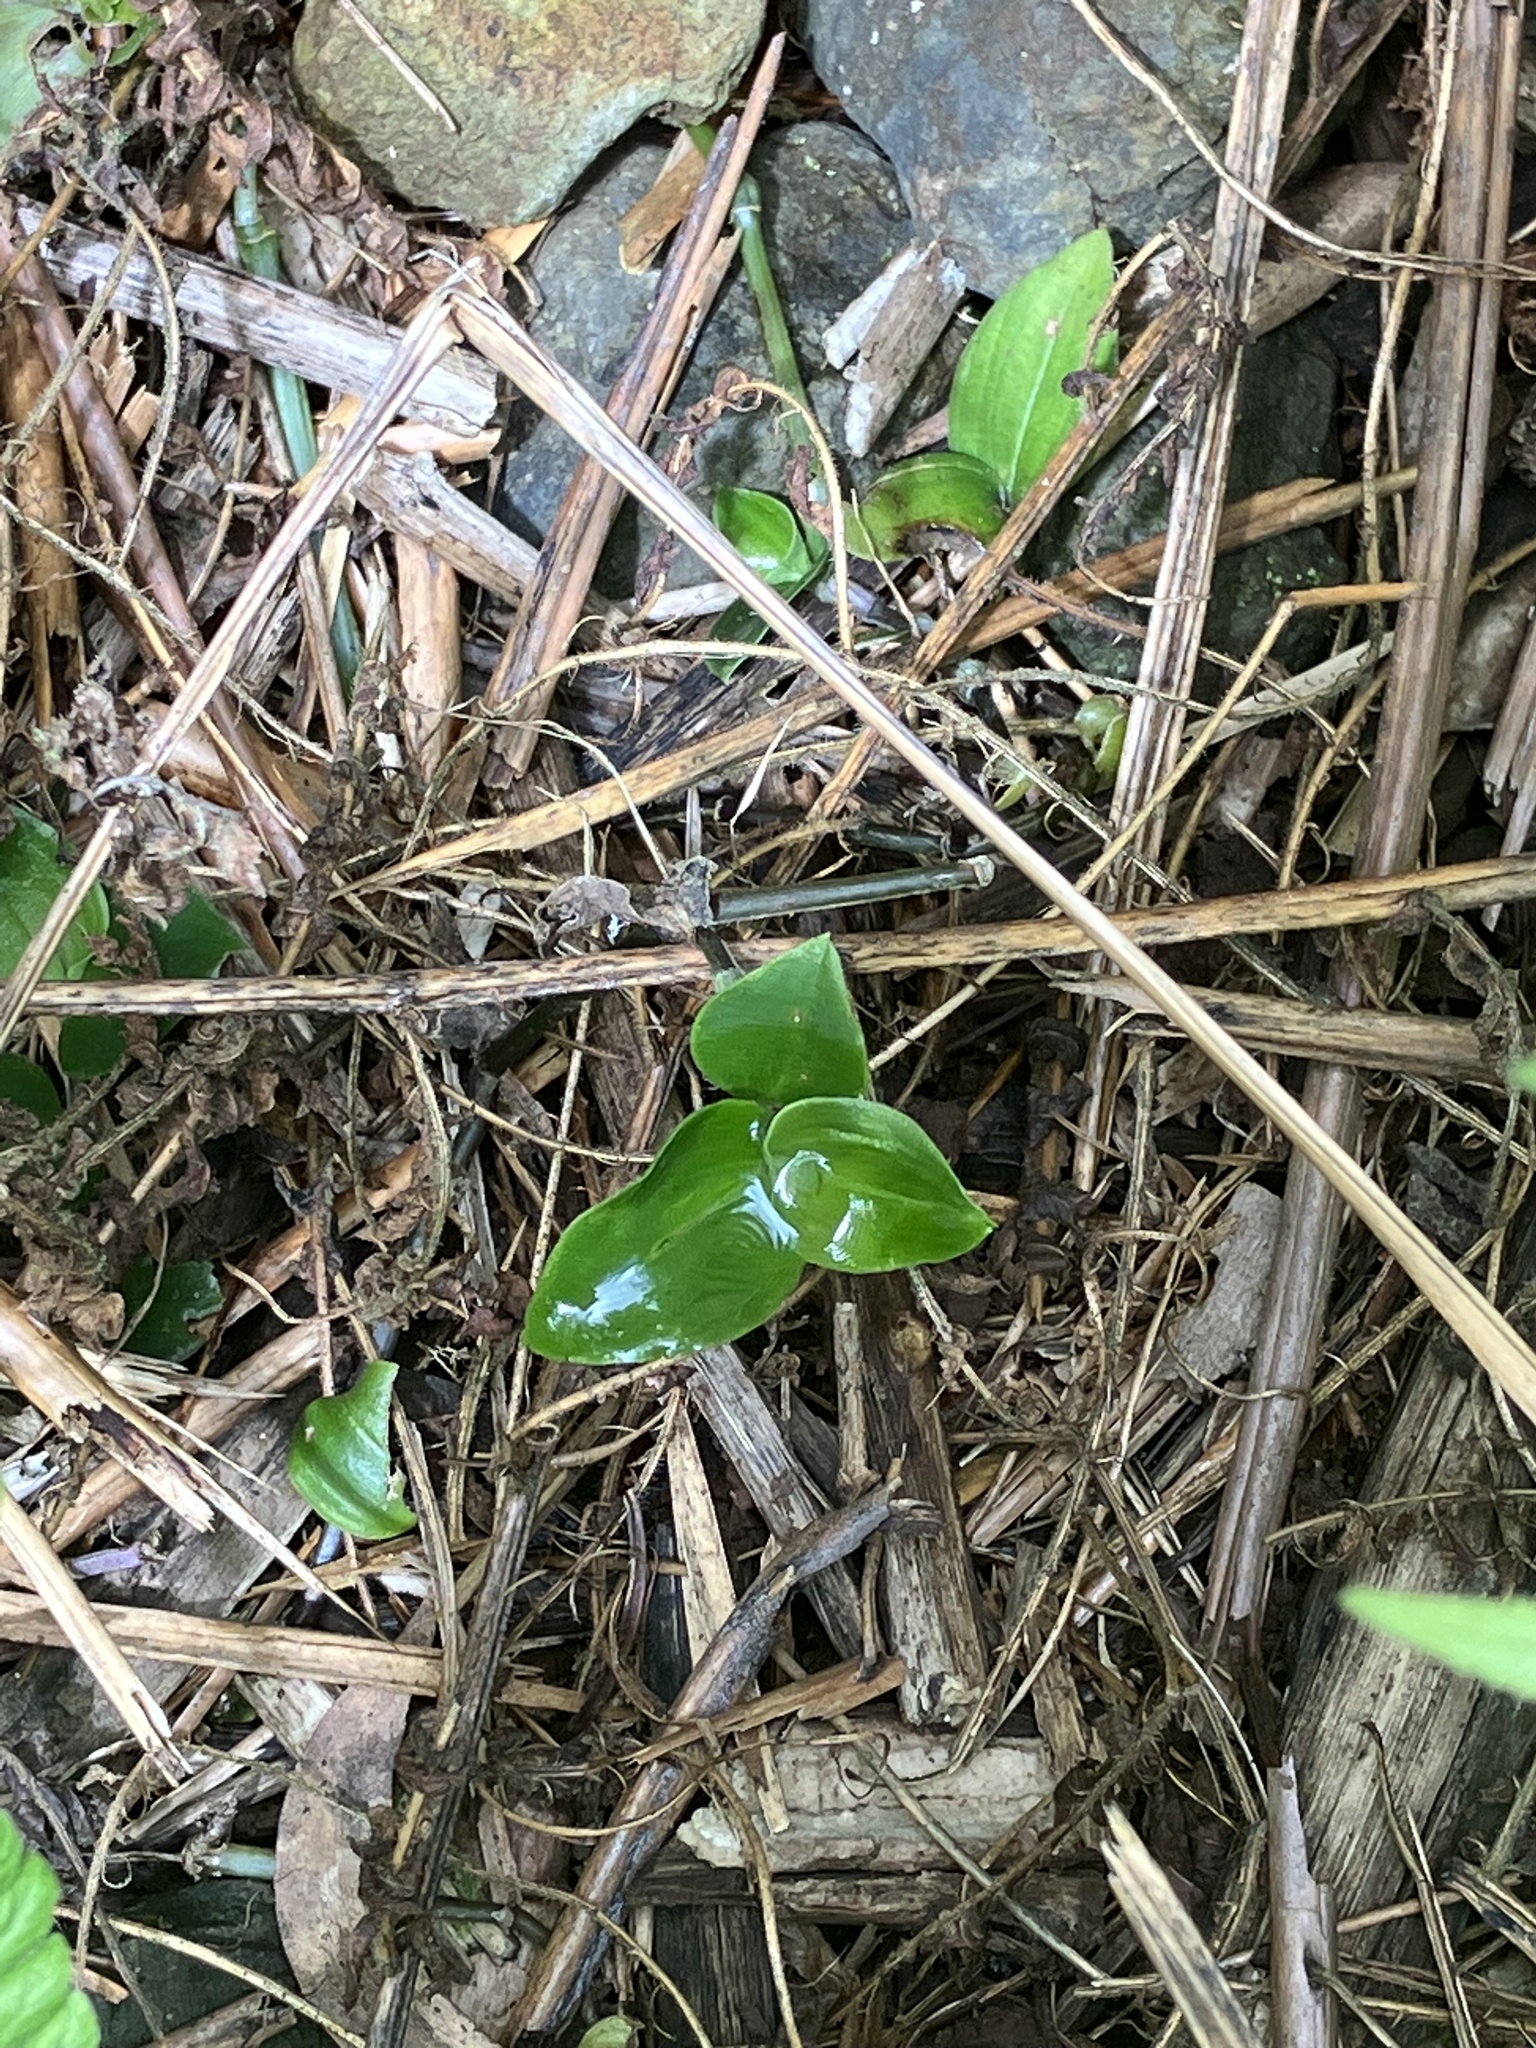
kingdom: Plantae
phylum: Tracheophyta
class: Liliopsida
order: Commelinales
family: Commelinaceae
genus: Tradescantia
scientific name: Tradescantia fluminensis
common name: Wandering-jew
